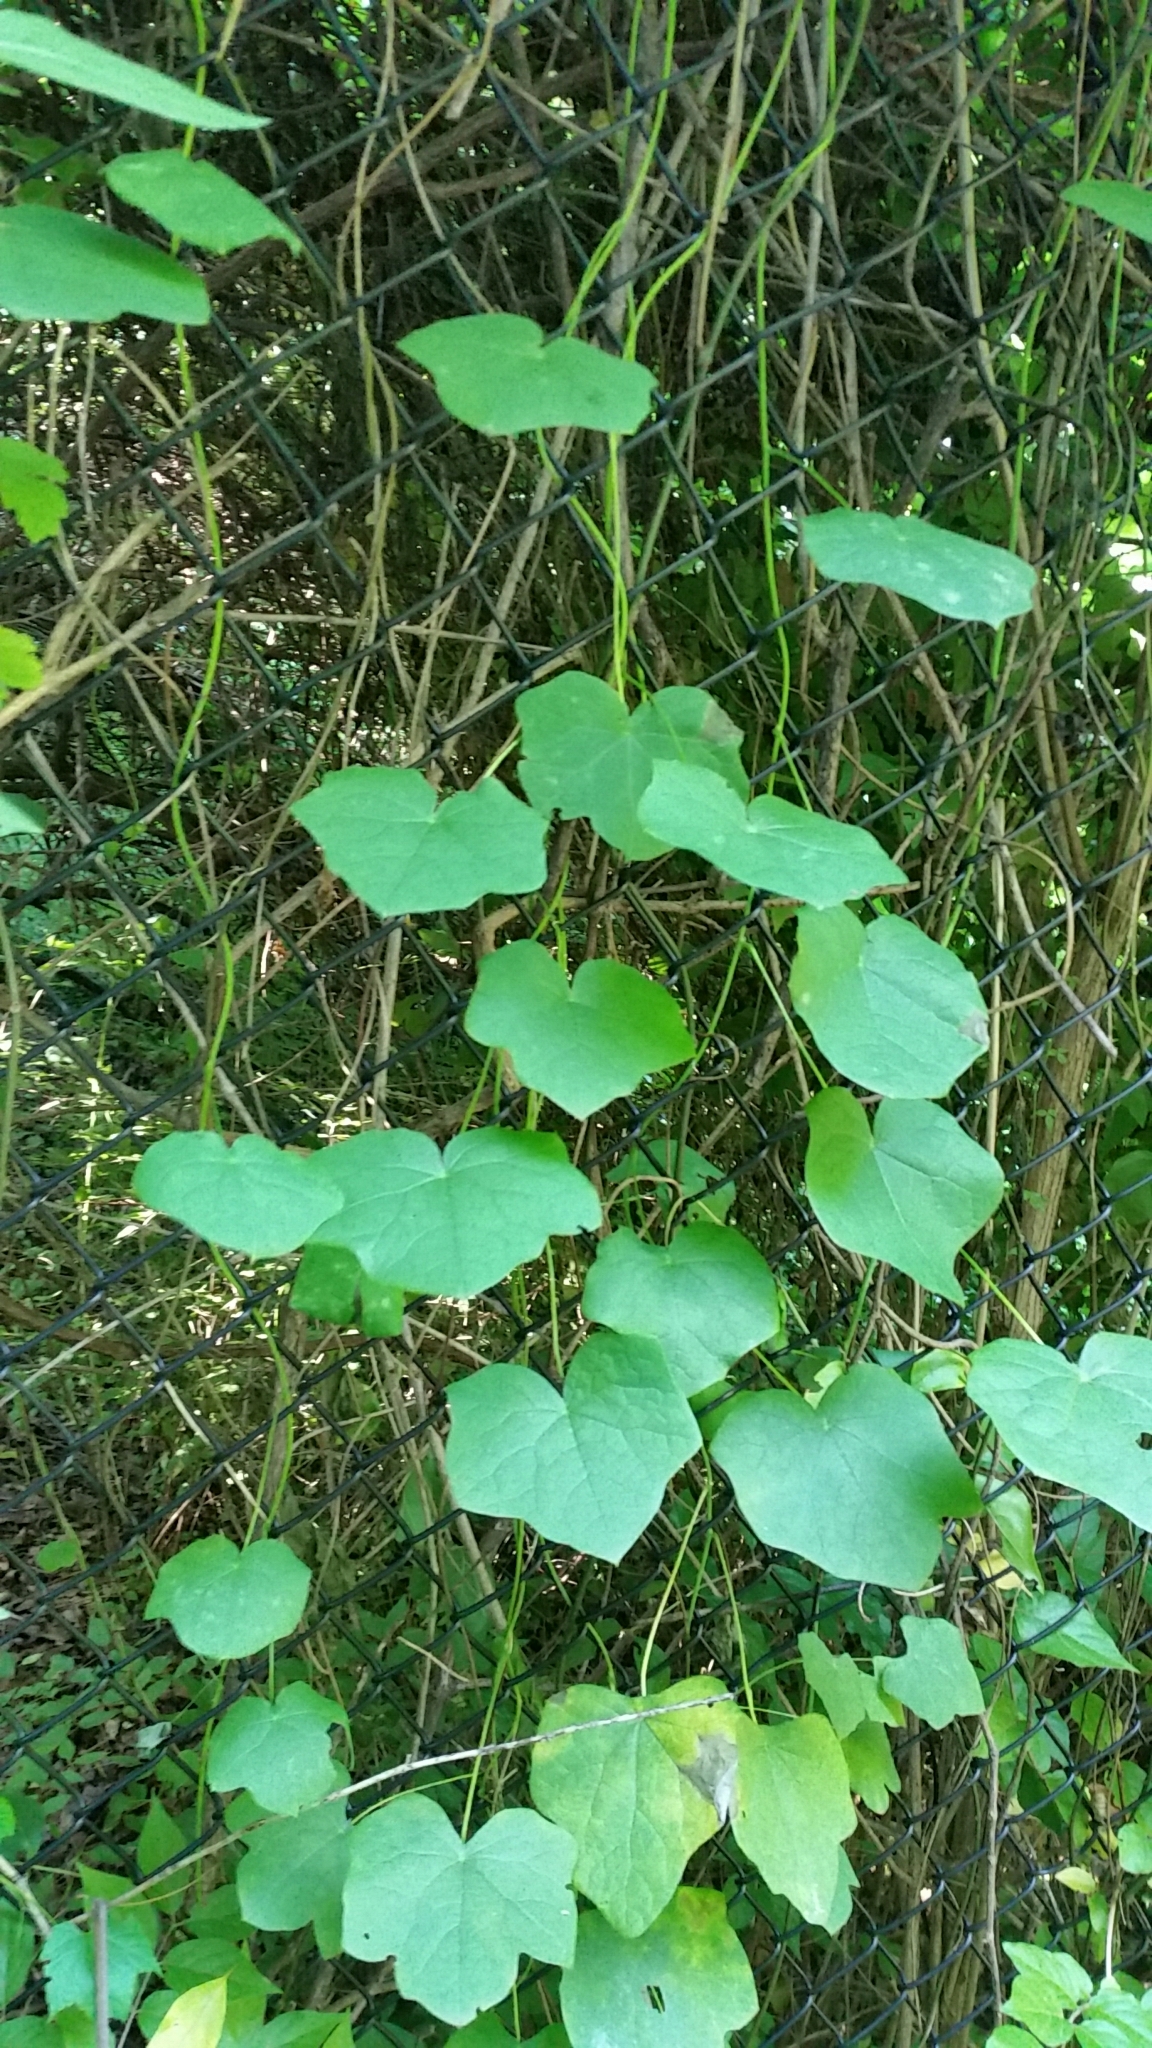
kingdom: Plantae
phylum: Tracheophyta
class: Magnoliopsida
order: Ranunculales
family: Menispermaceae
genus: Menispermum
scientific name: Menispermum canadense
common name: Moonseed
